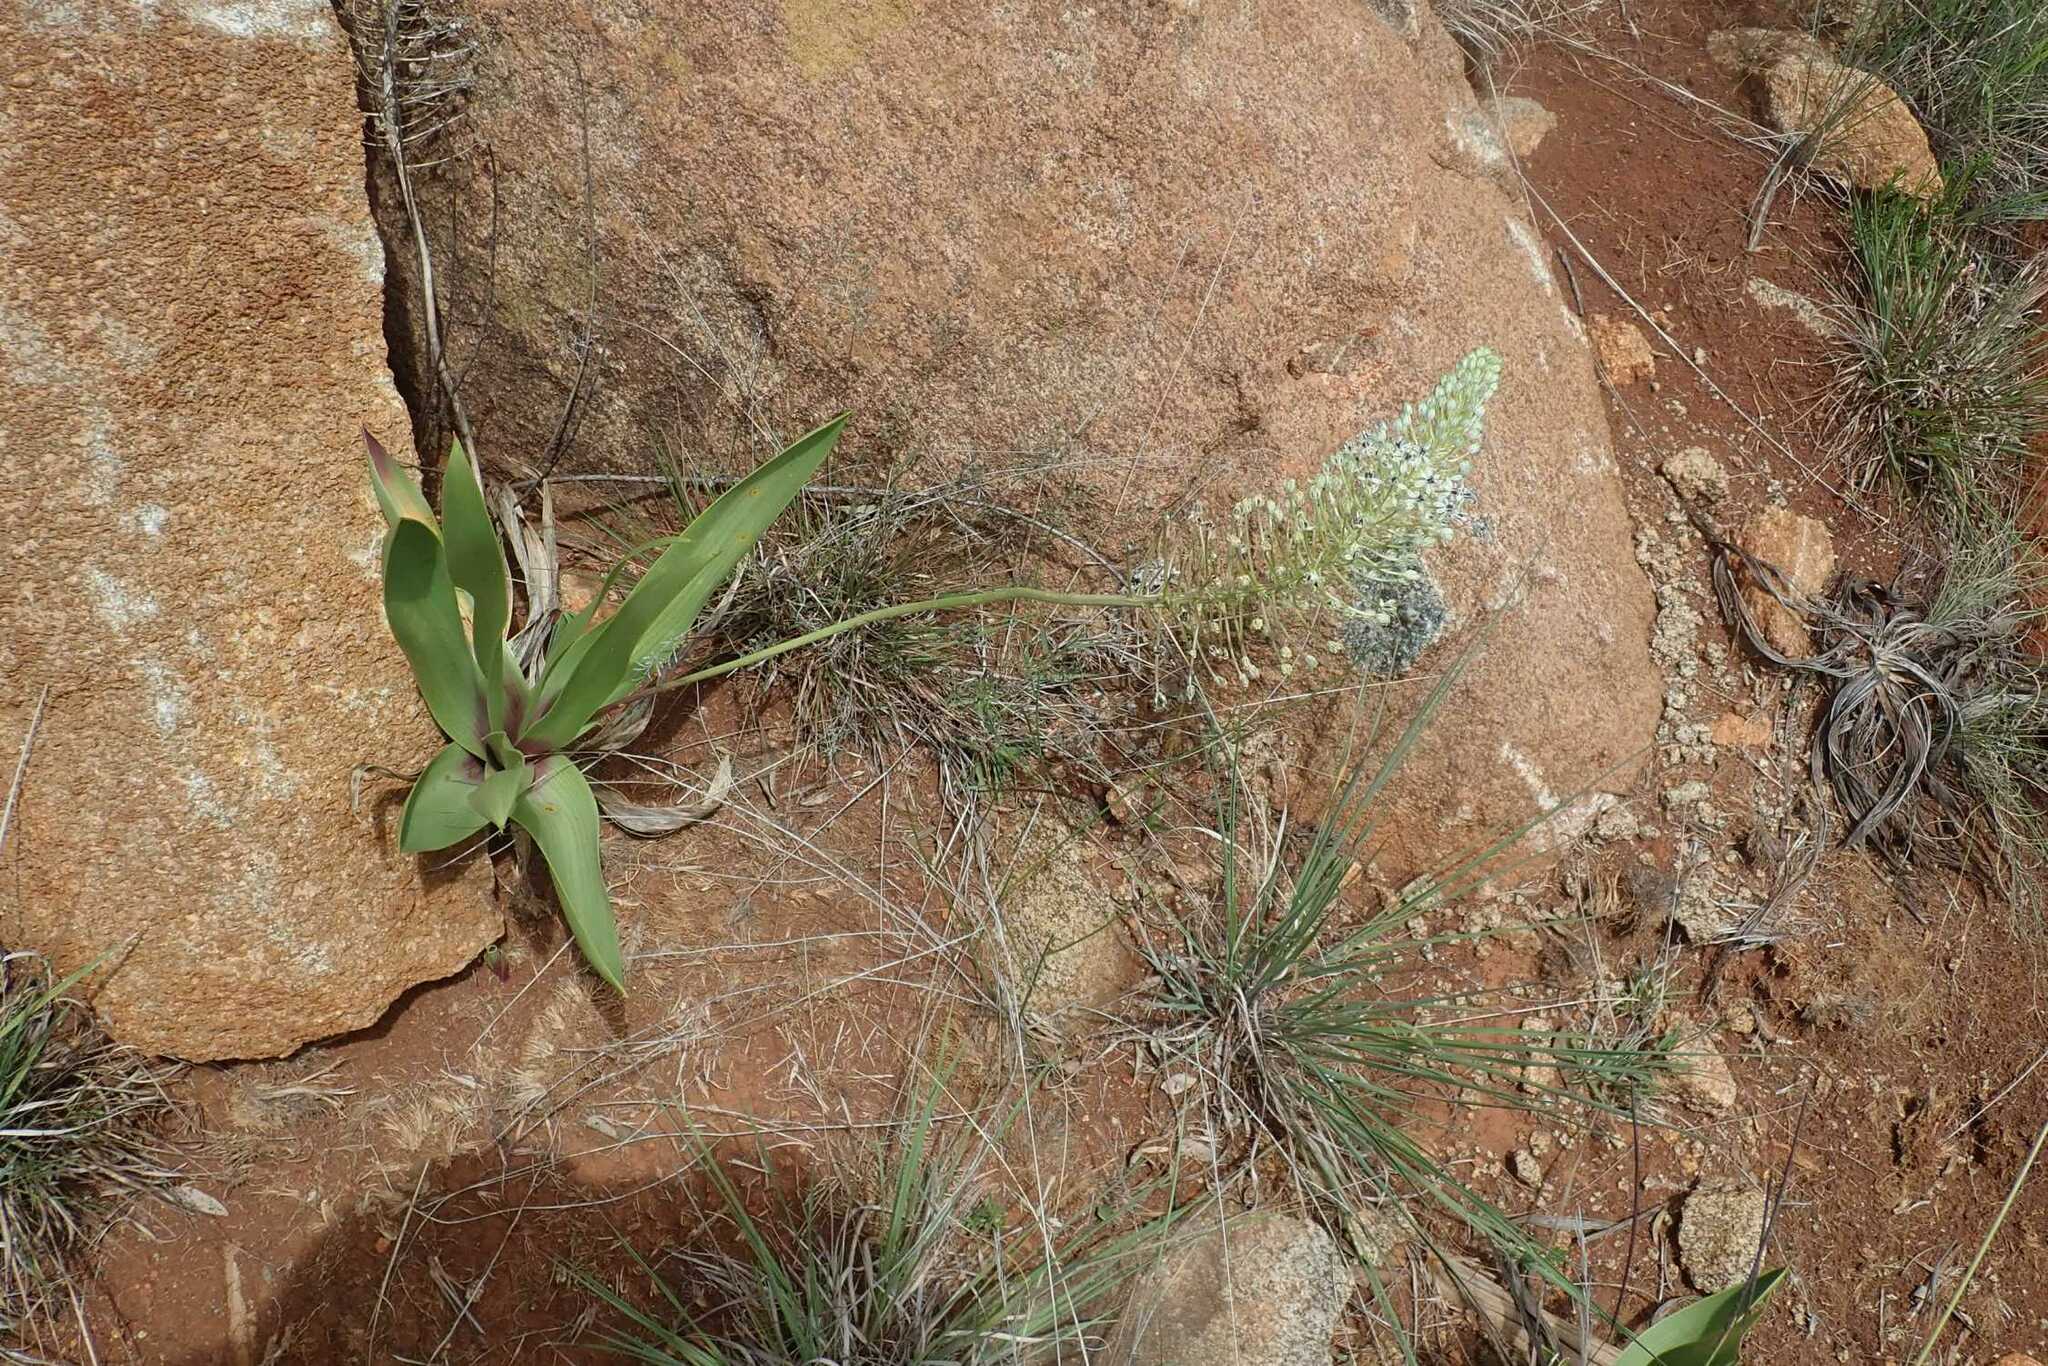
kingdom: Plantae
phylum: Tracheophyta
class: Liliopsida
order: Asparagales
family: Asparagaceae
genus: Schizocarphus
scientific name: Schizocarphus nervosus
